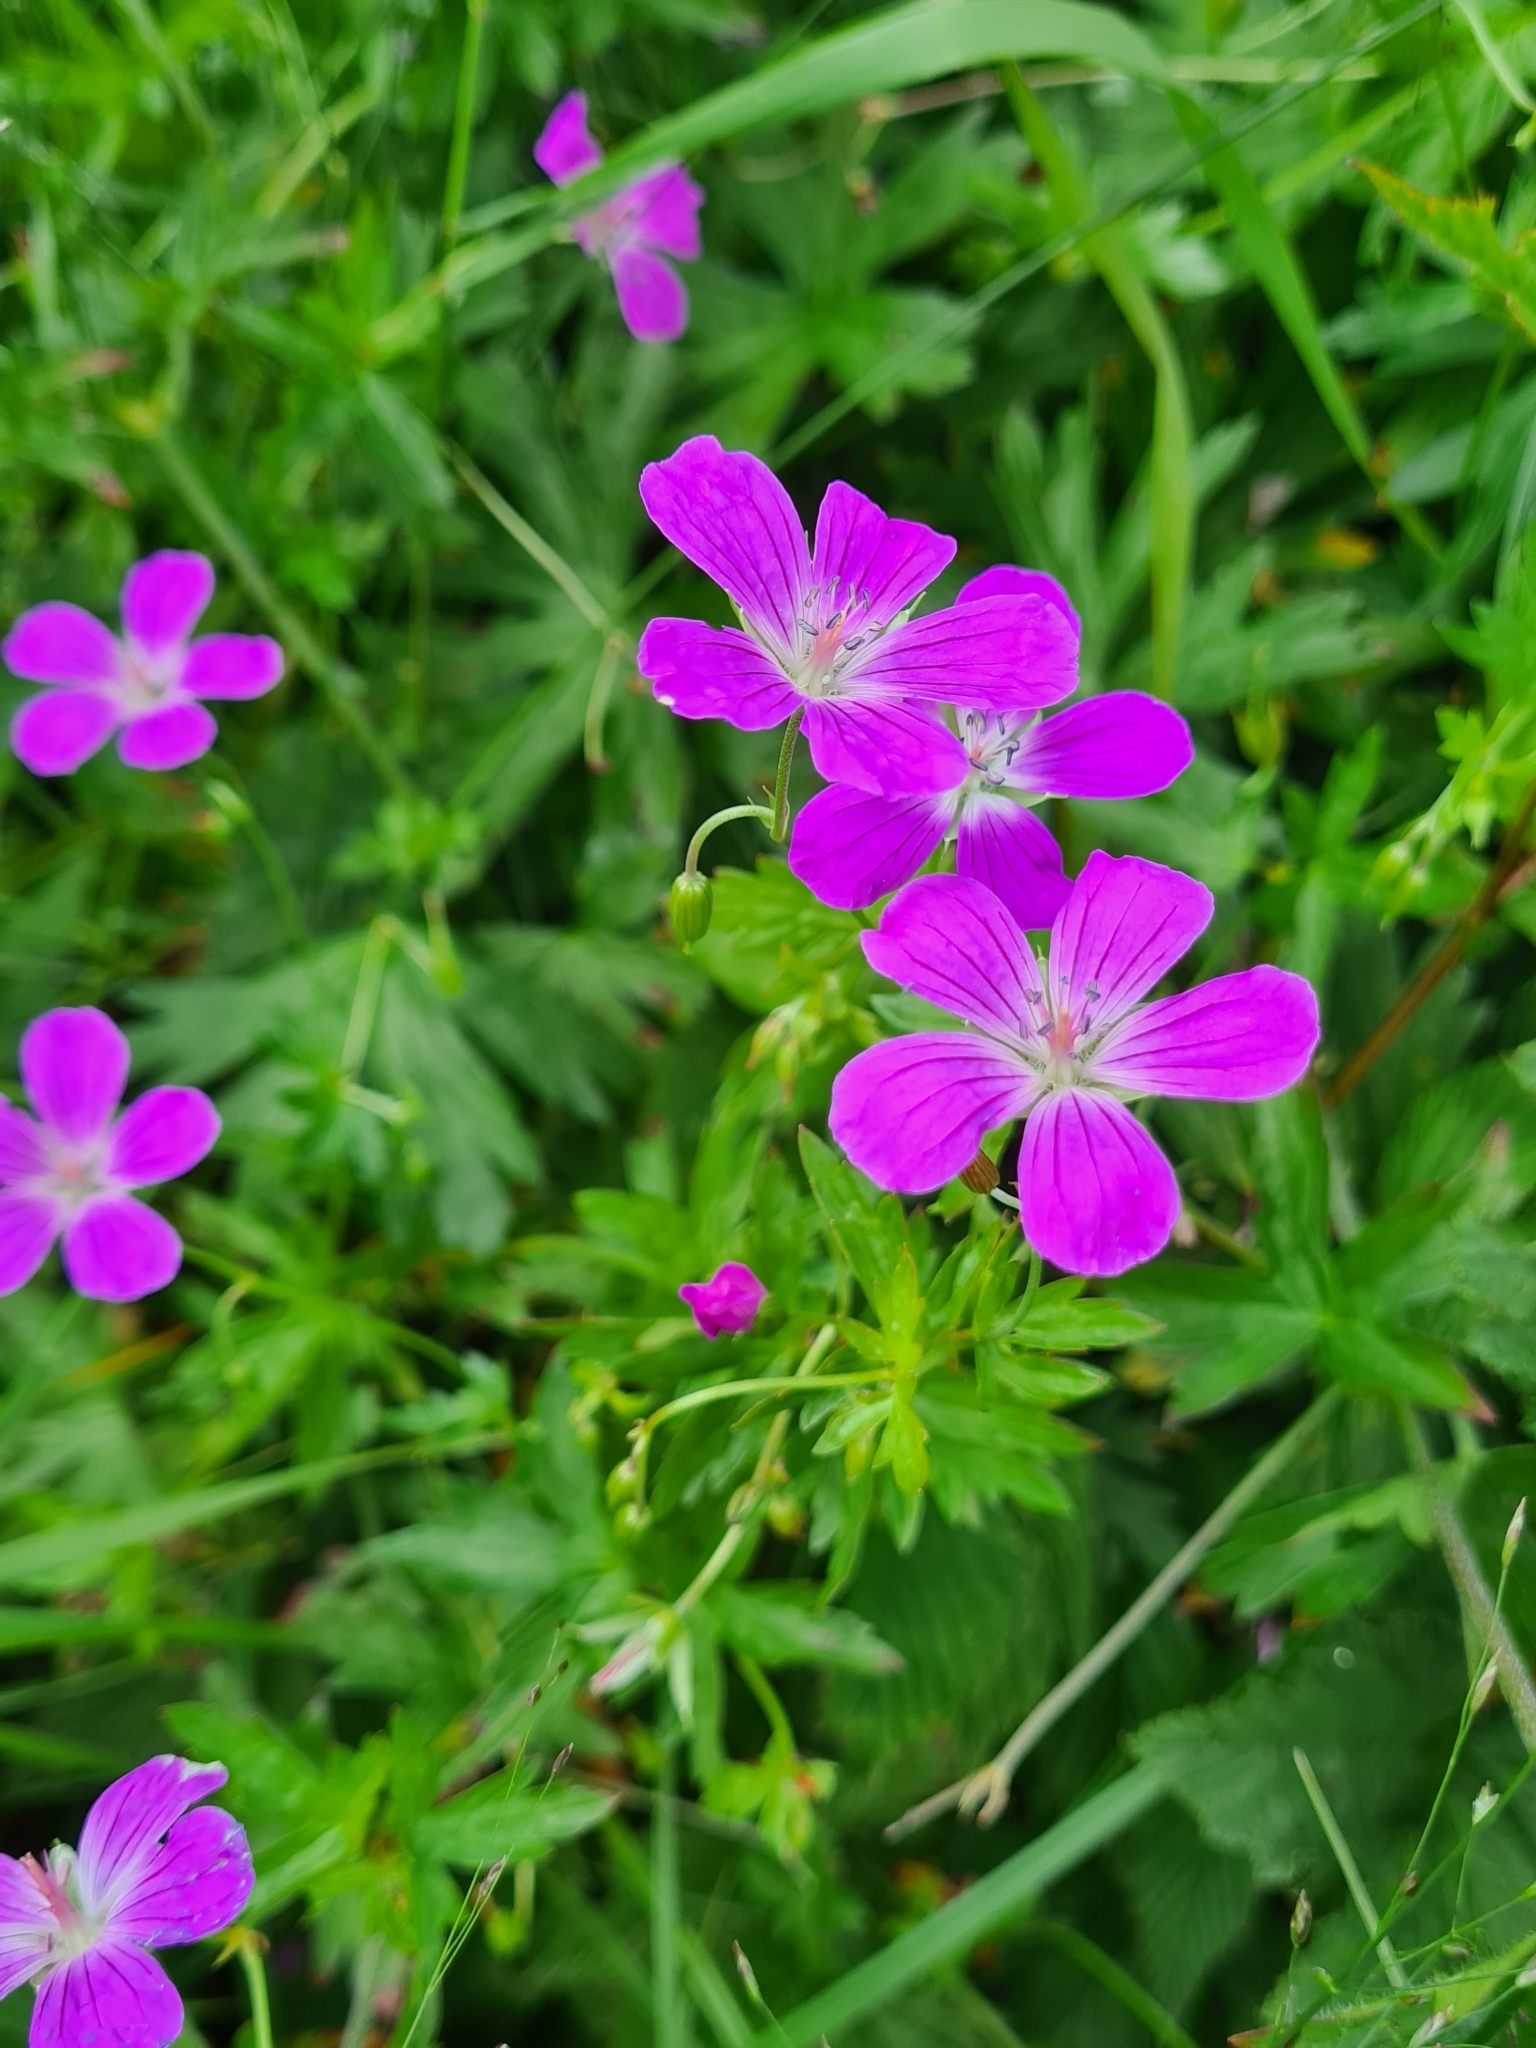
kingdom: Plantae
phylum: Tracheophyta
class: Magnoliopsida
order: Geraniales
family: Geraniaceae
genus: Geranium
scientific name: Geranium palustre
